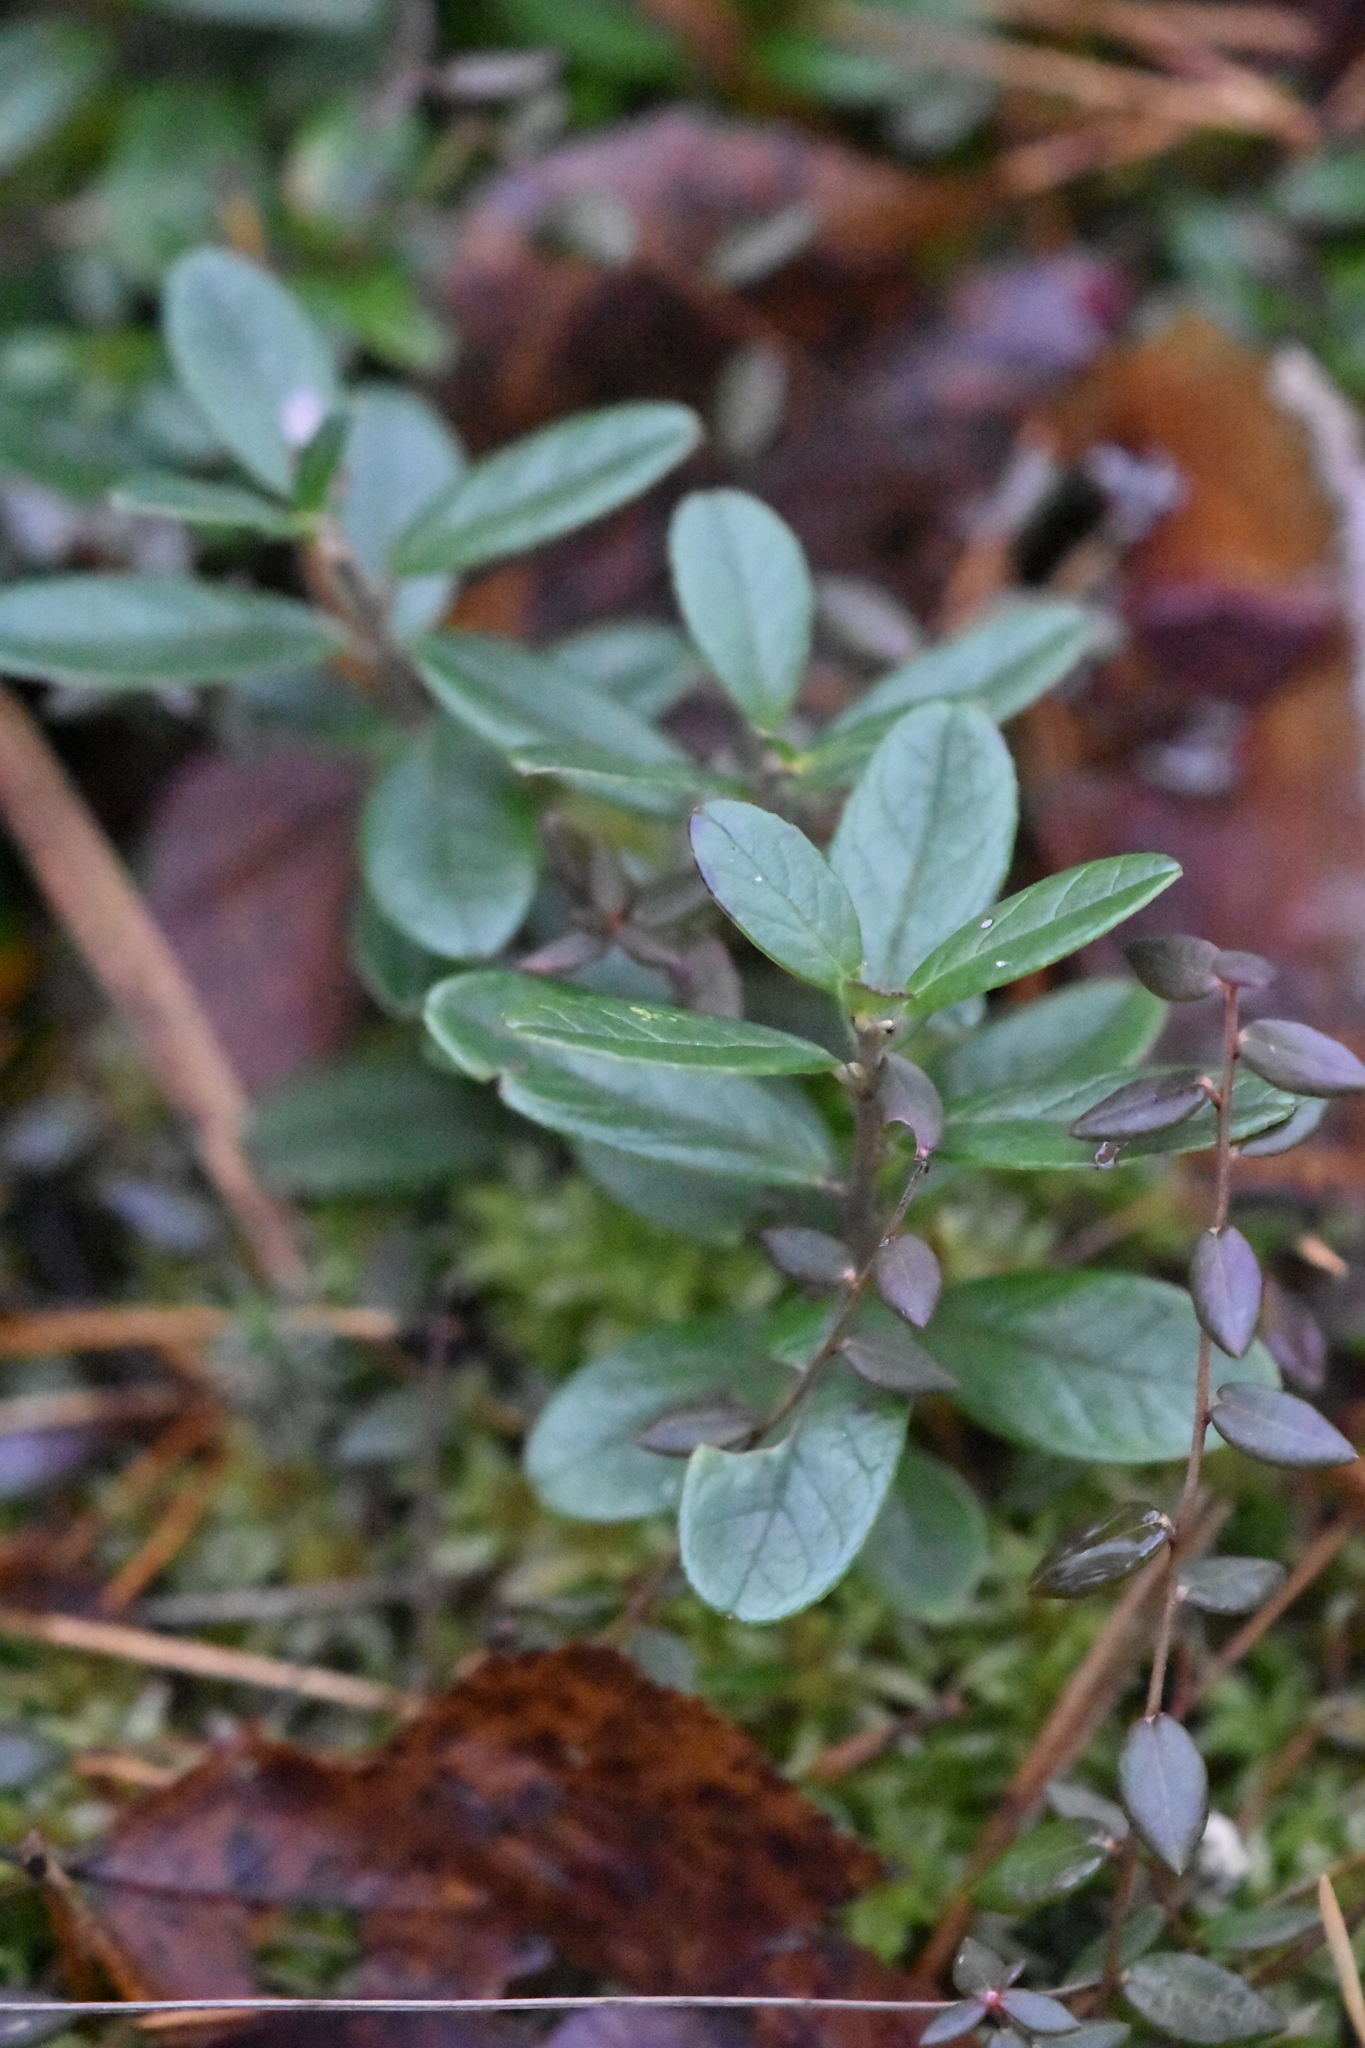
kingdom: Plantae
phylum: Tracheophyta
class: Magnoliopsida
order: Ericales
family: Ericaceae
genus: Vaccinium
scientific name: Vaccinium vitis-idaea
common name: Cowberry
